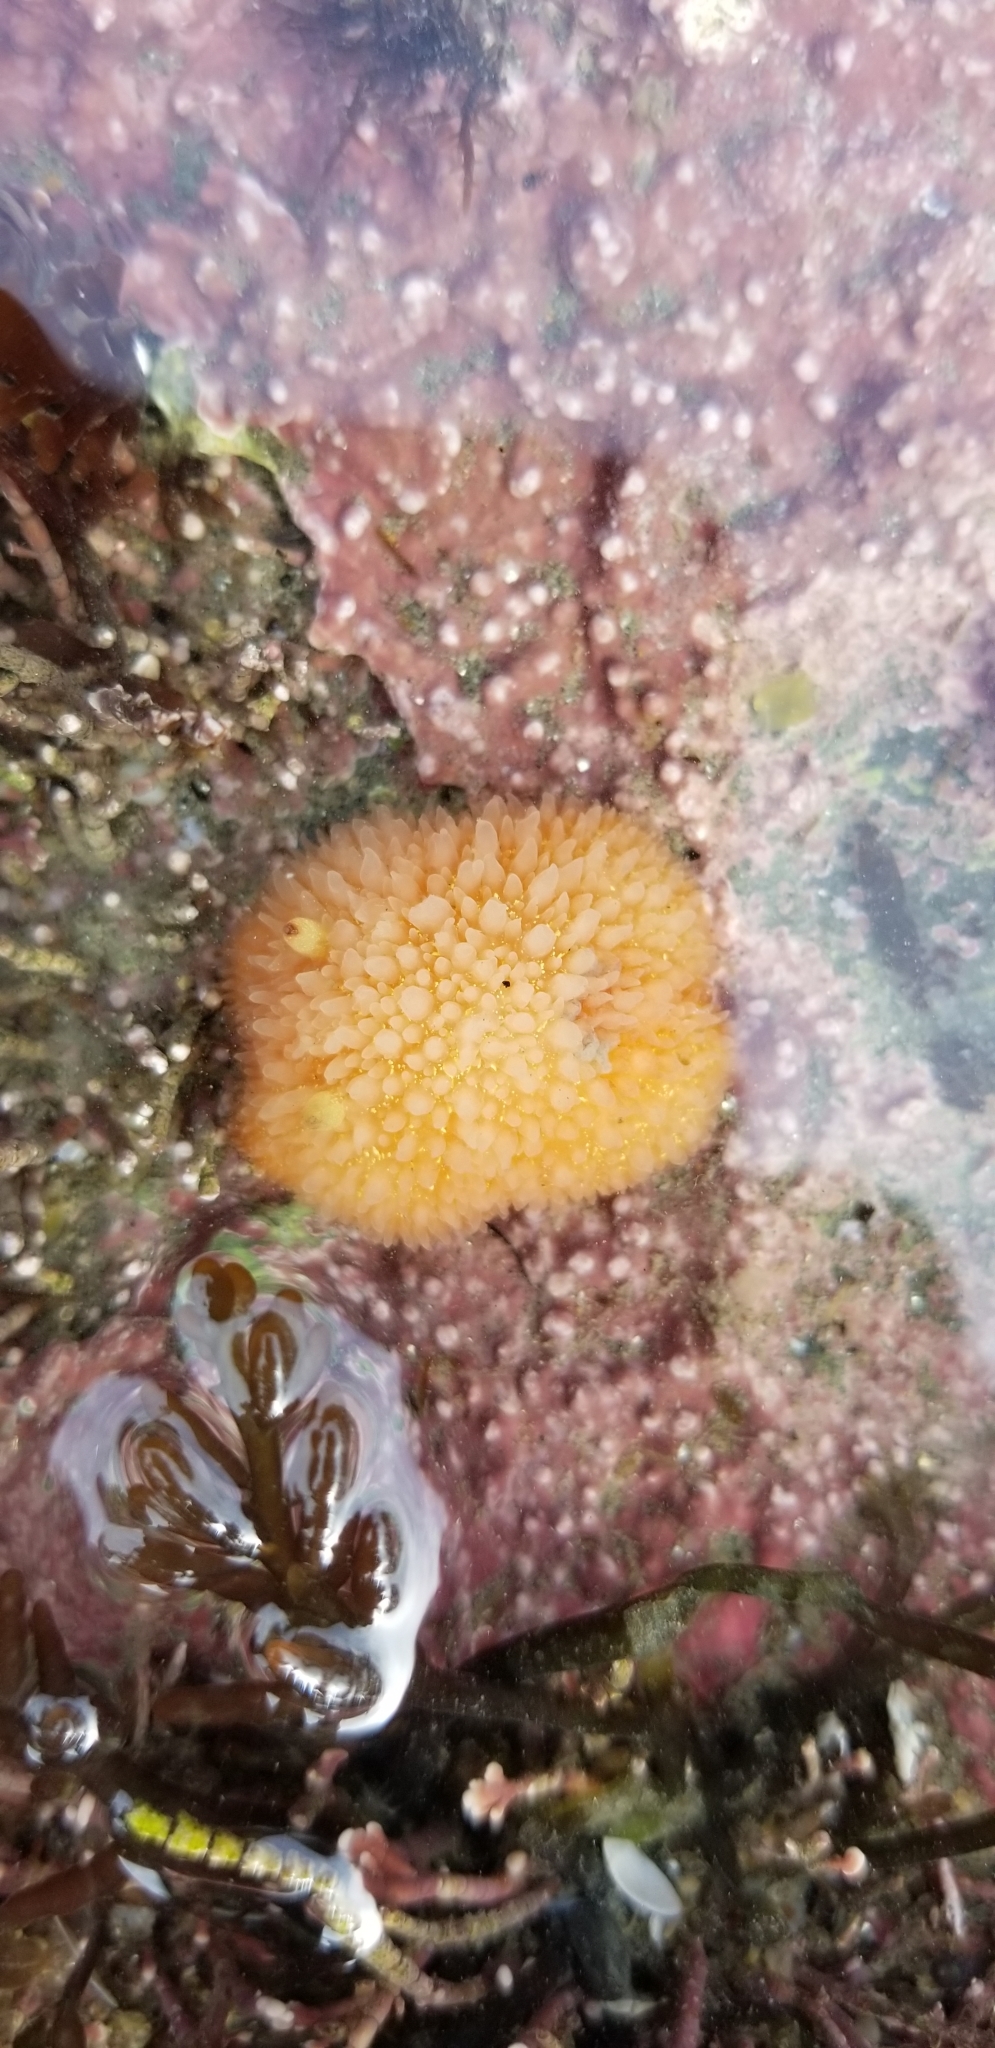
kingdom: Animalia
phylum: Mollusca
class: Gastropoda
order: Nudibranchia
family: Onchidorididae
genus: Acanthodoris
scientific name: Acanthodoris lutea
